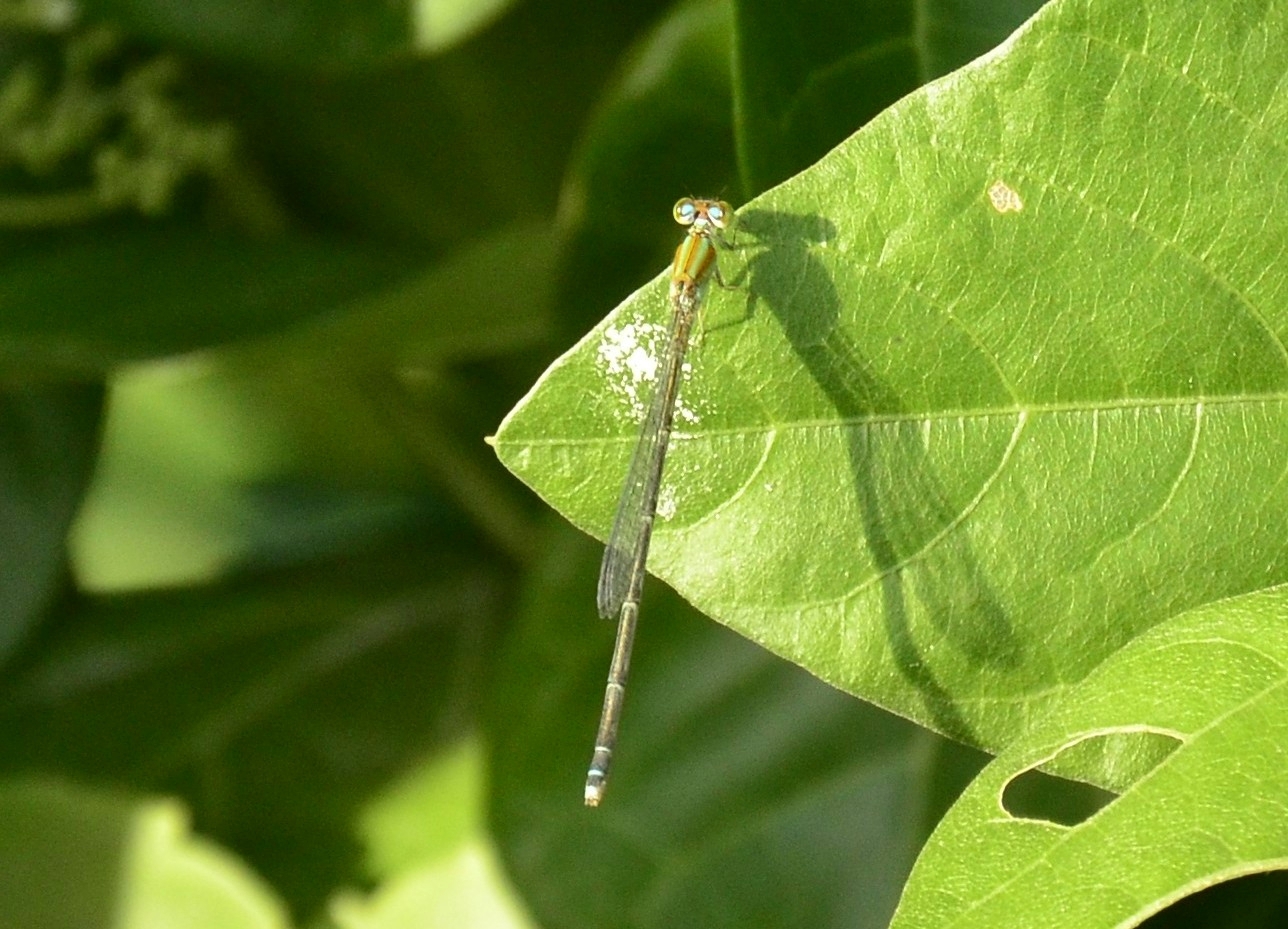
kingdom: Animalia
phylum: Arthropoda
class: Insecta
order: Odonata
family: Coenagrionidae
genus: Pseudagrion
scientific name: Pseudagrion microcephalum
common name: Blue riverdamsel
